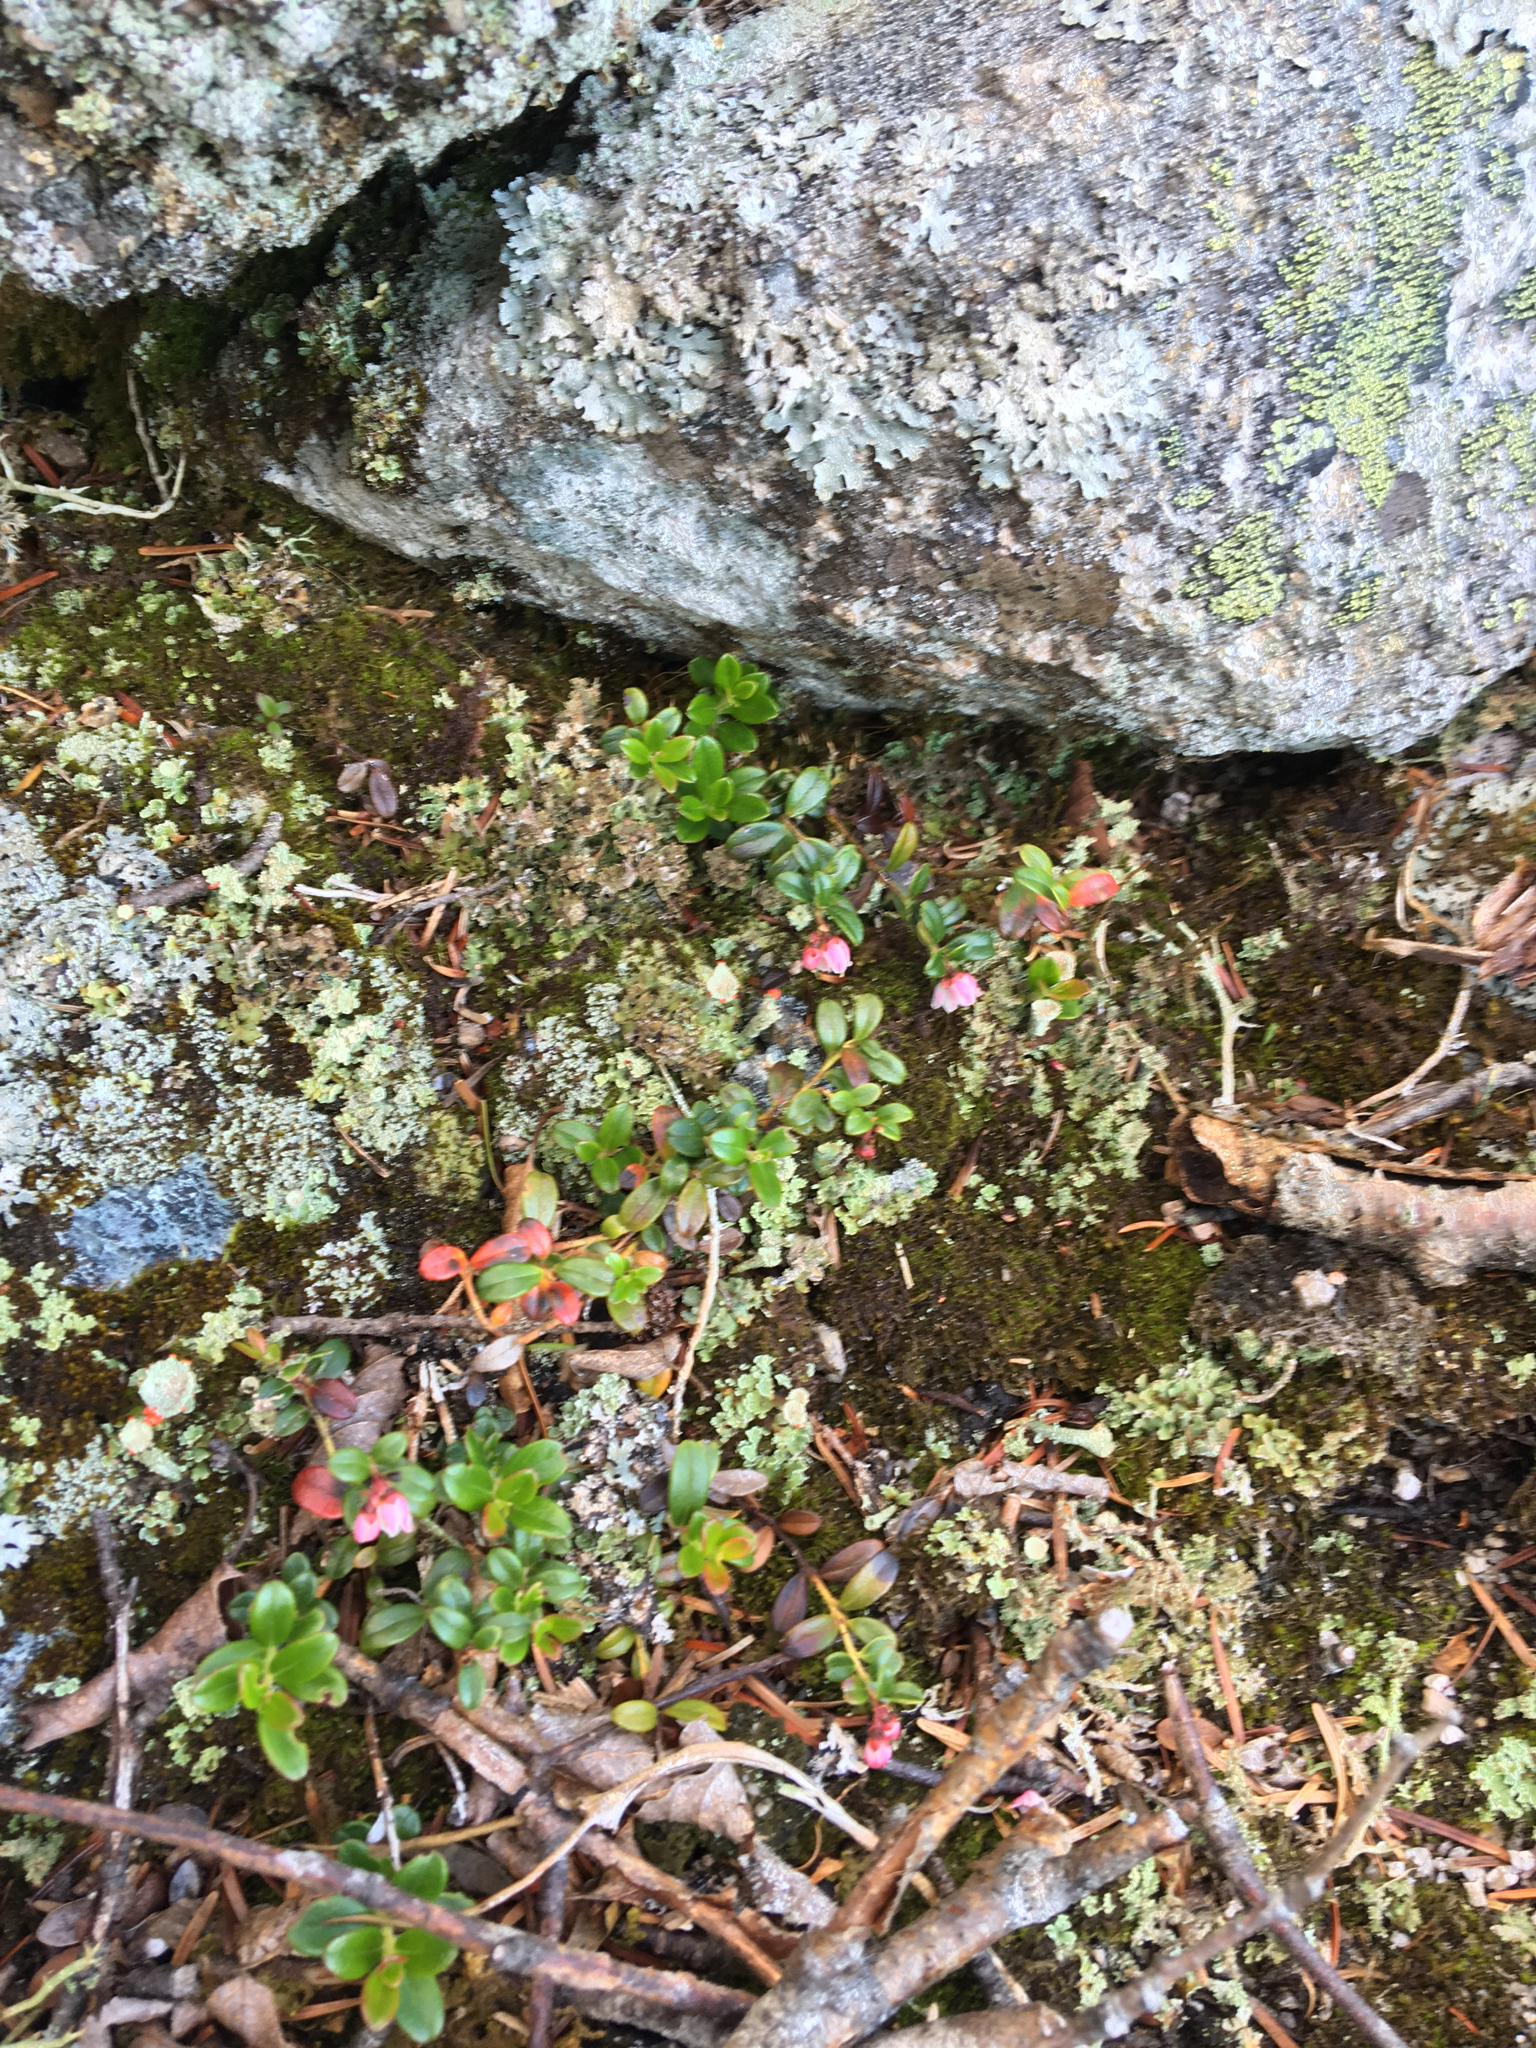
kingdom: Plantae
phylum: Tracheophyta
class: Magnoliopsida
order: Ericales
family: Ericaceae
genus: Vaccinium
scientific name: Vaccinium vitis-idaea
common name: Cowberry
